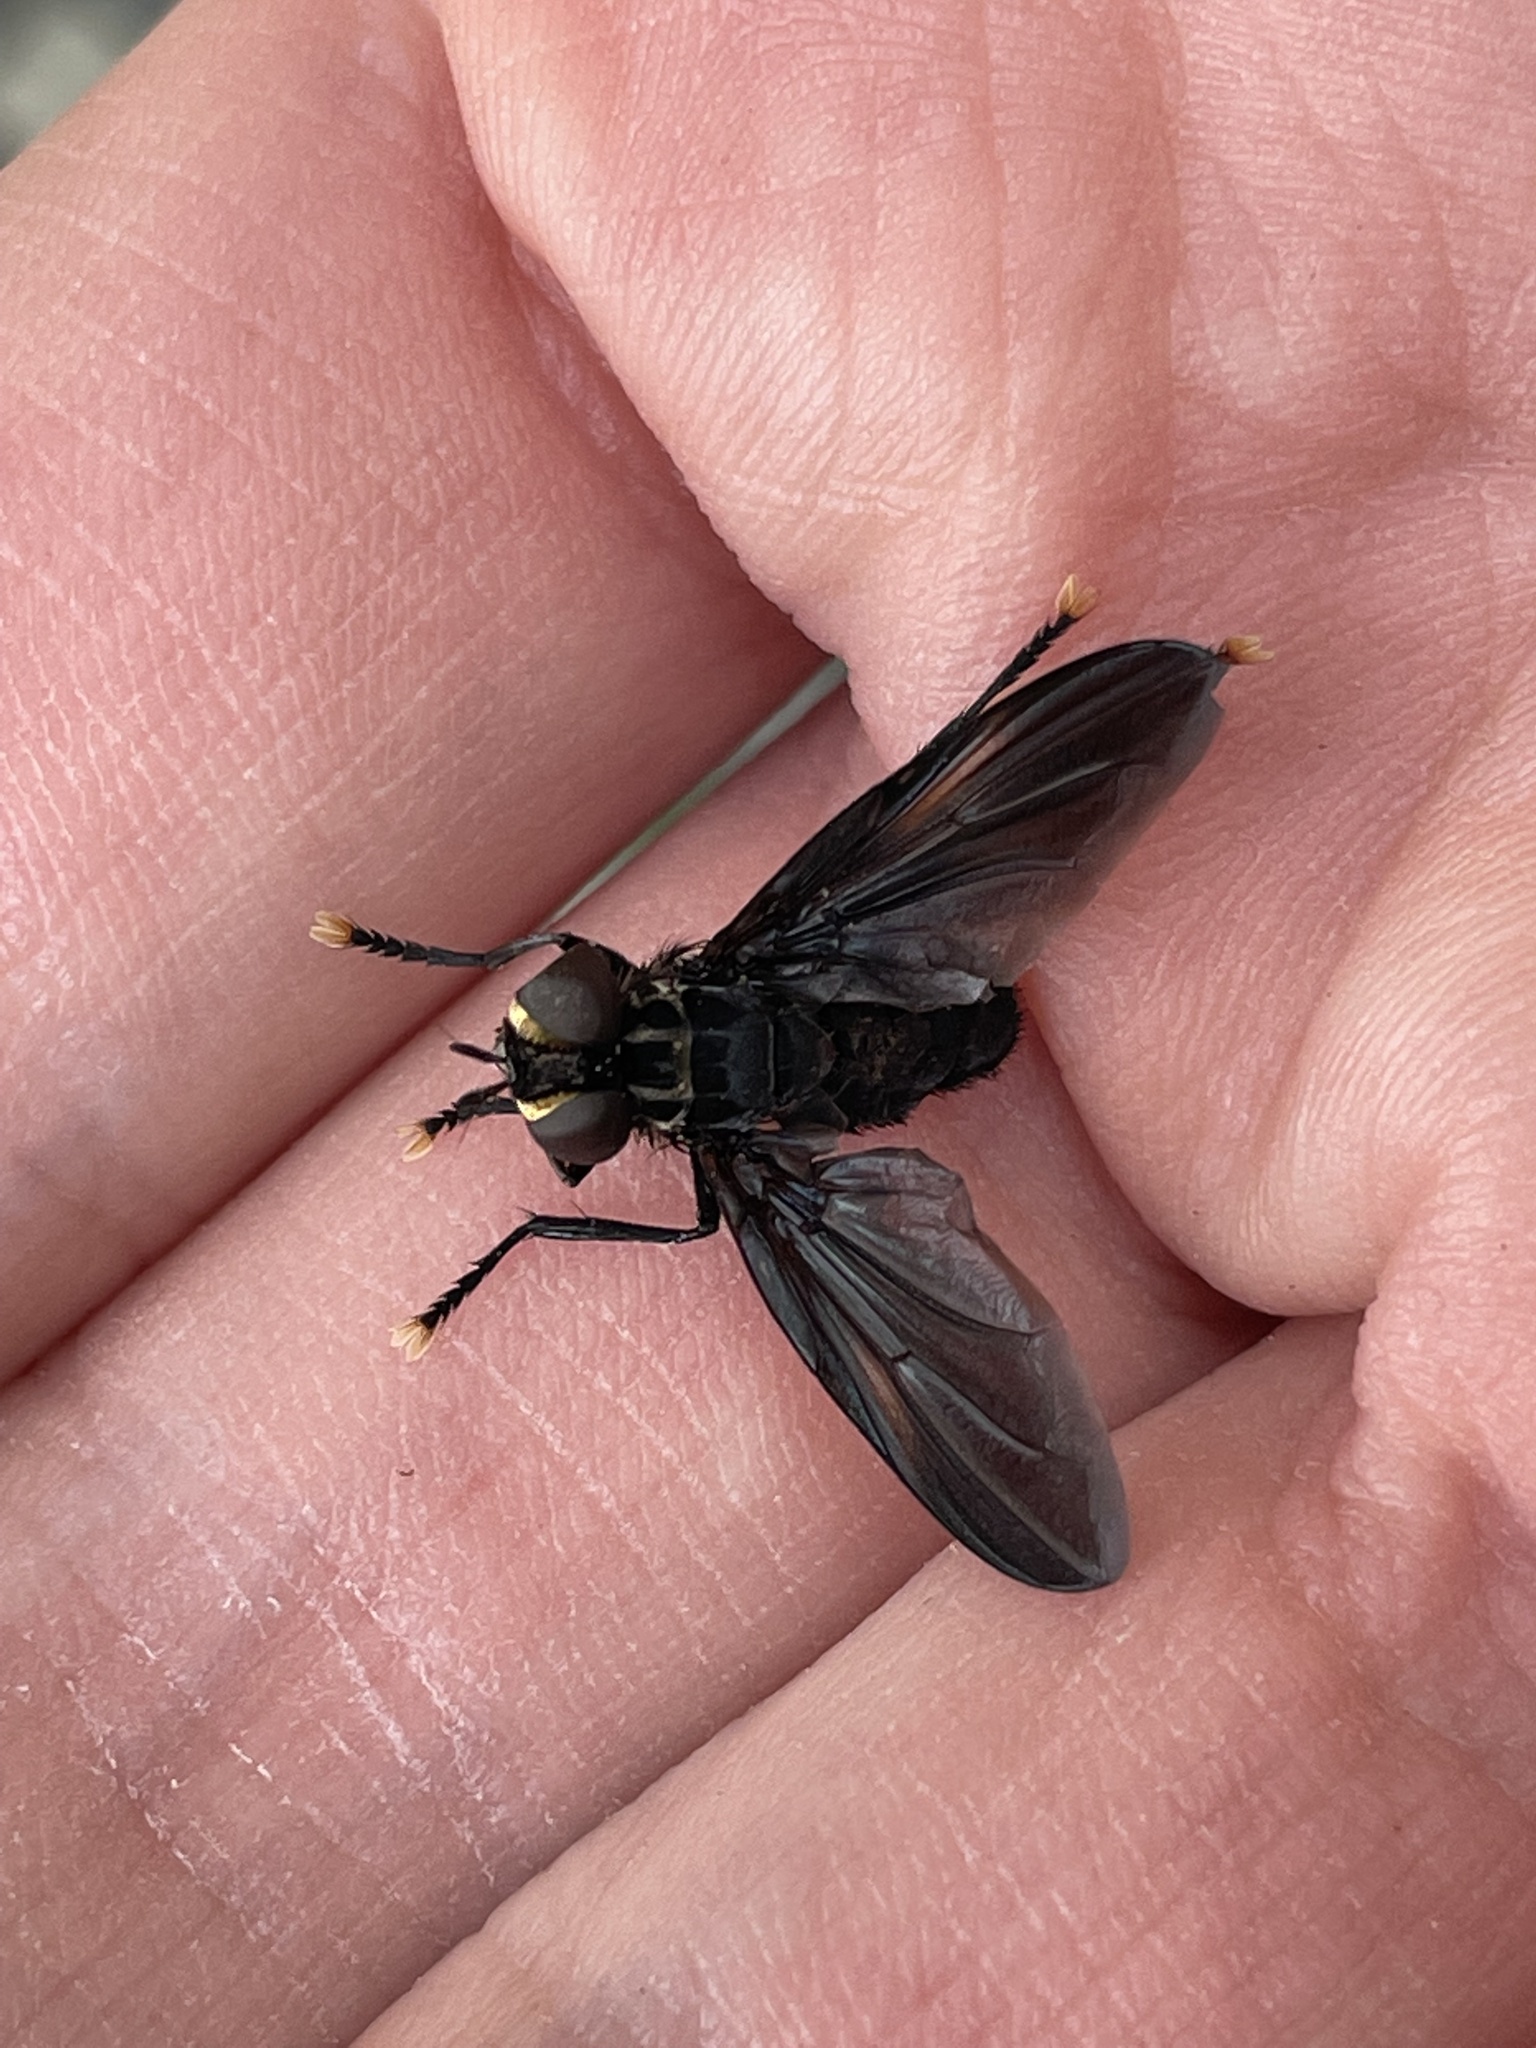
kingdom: Animalia
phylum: Arthropoda
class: Insecta
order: Diptera
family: Tachinidae
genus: Trichopoda
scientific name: Trichopoda lanipes
